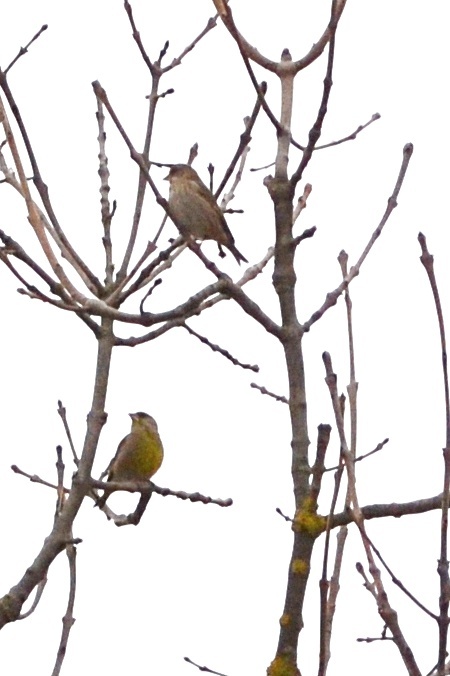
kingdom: Plantae
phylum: Tracheophyta
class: Liliopsida
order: Poales
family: Poaceae
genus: Chloris
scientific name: Chloris chloris
